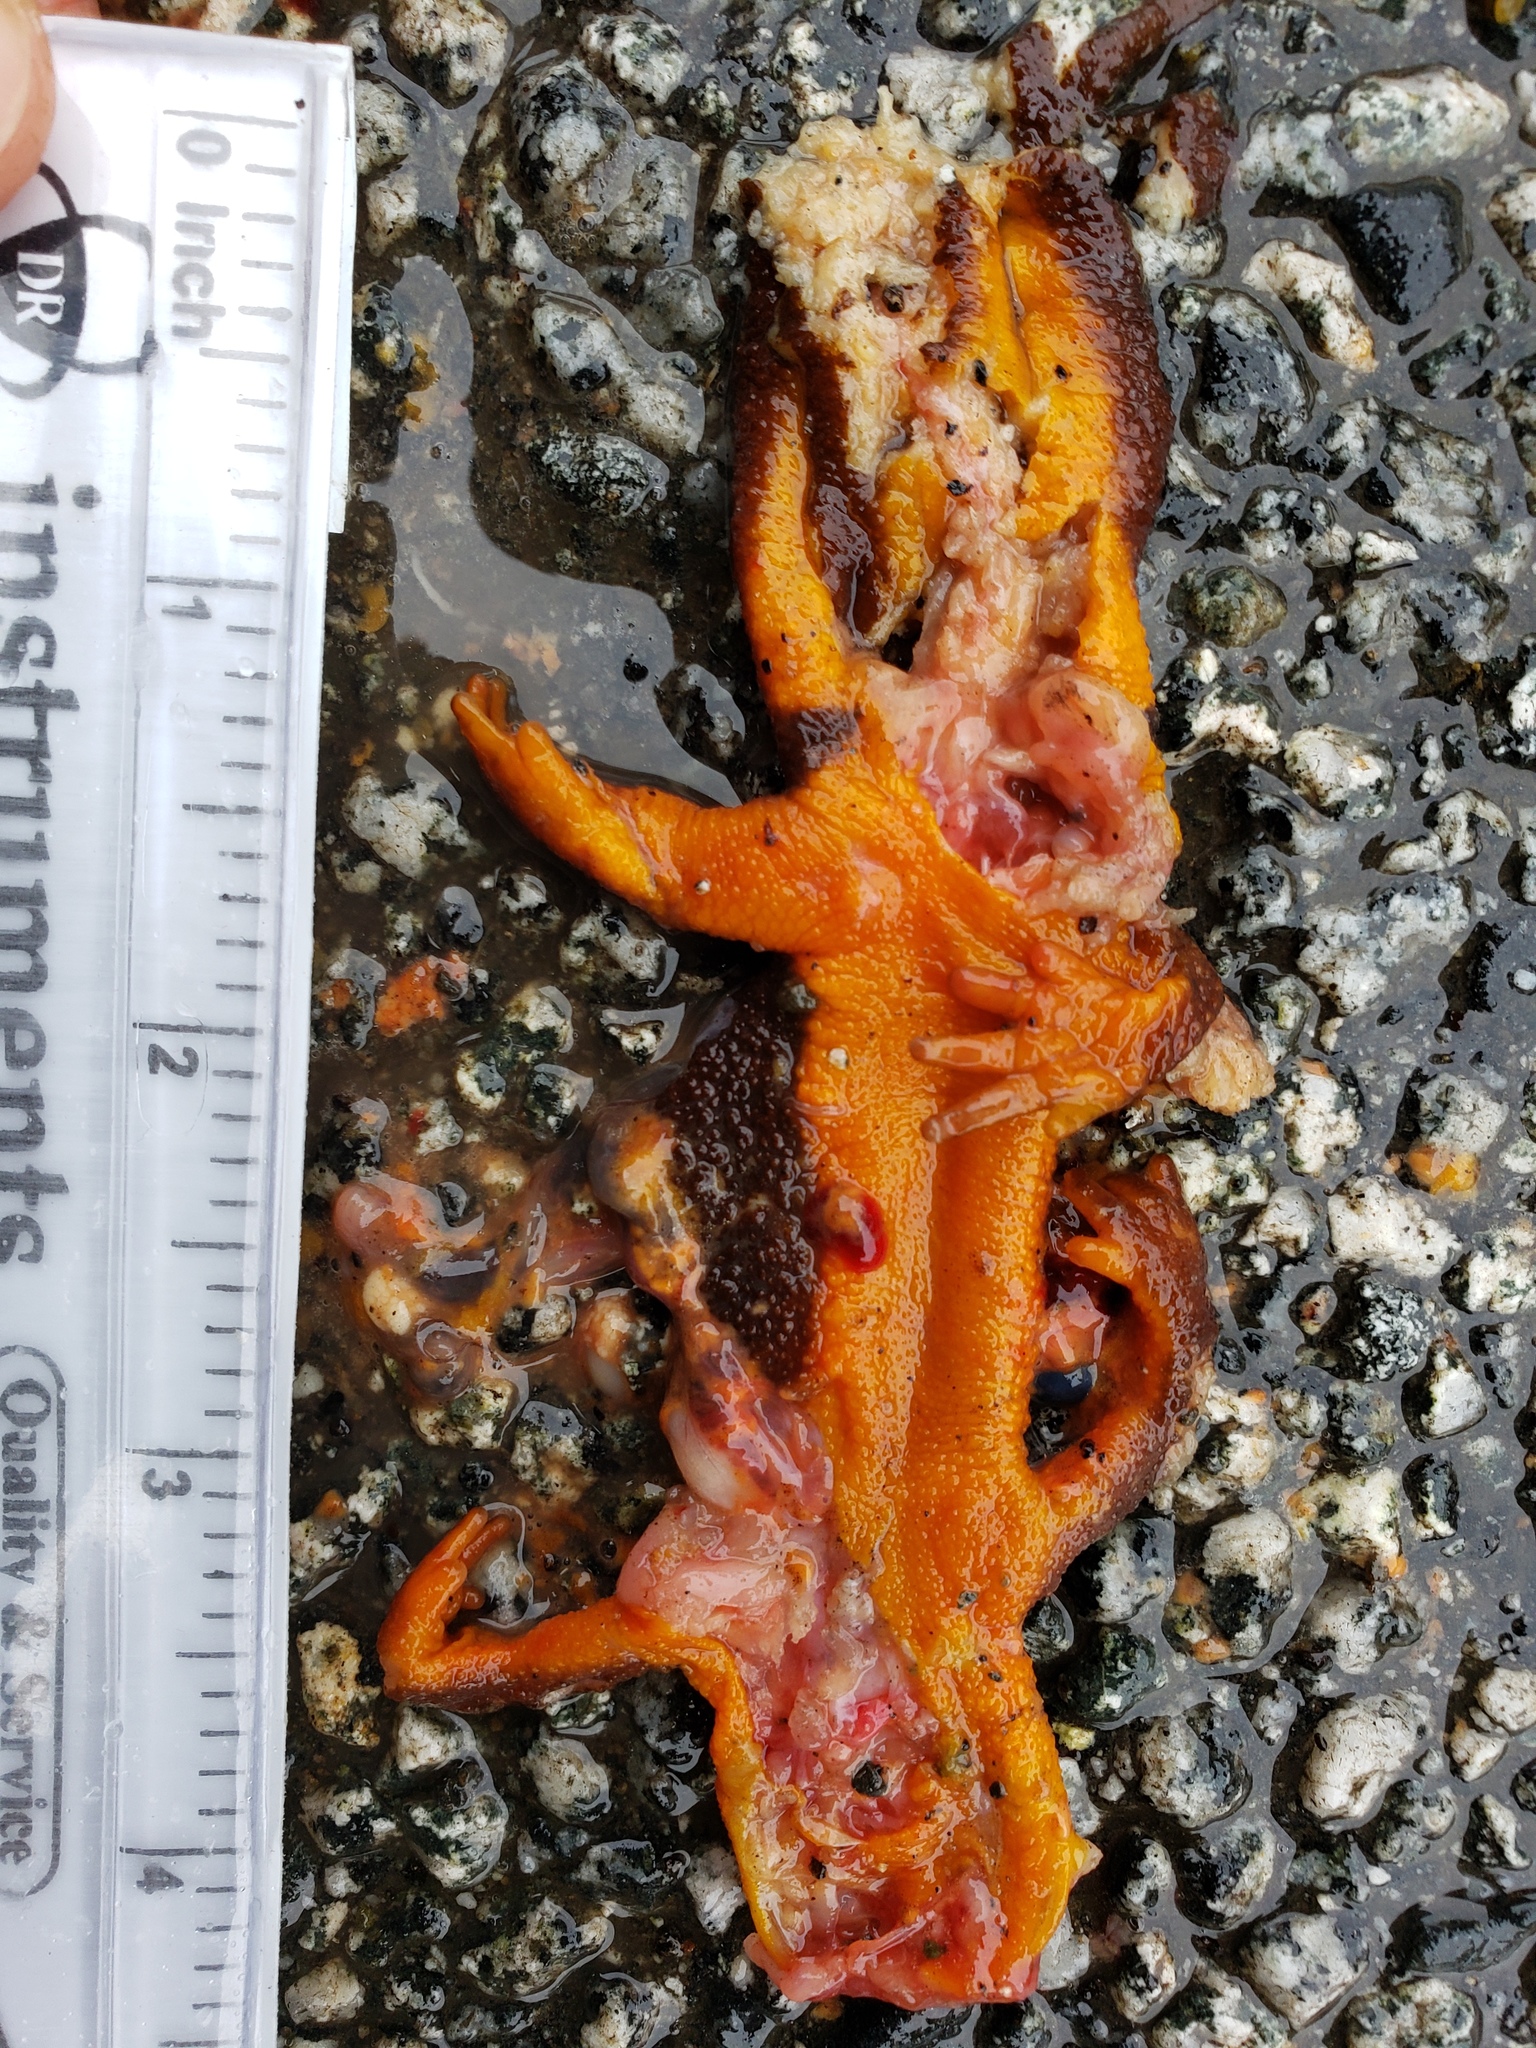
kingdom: Animalia
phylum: Chordata
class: Amphibia
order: Caudata
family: Salamandridae
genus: Taricha
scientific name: Taricha
